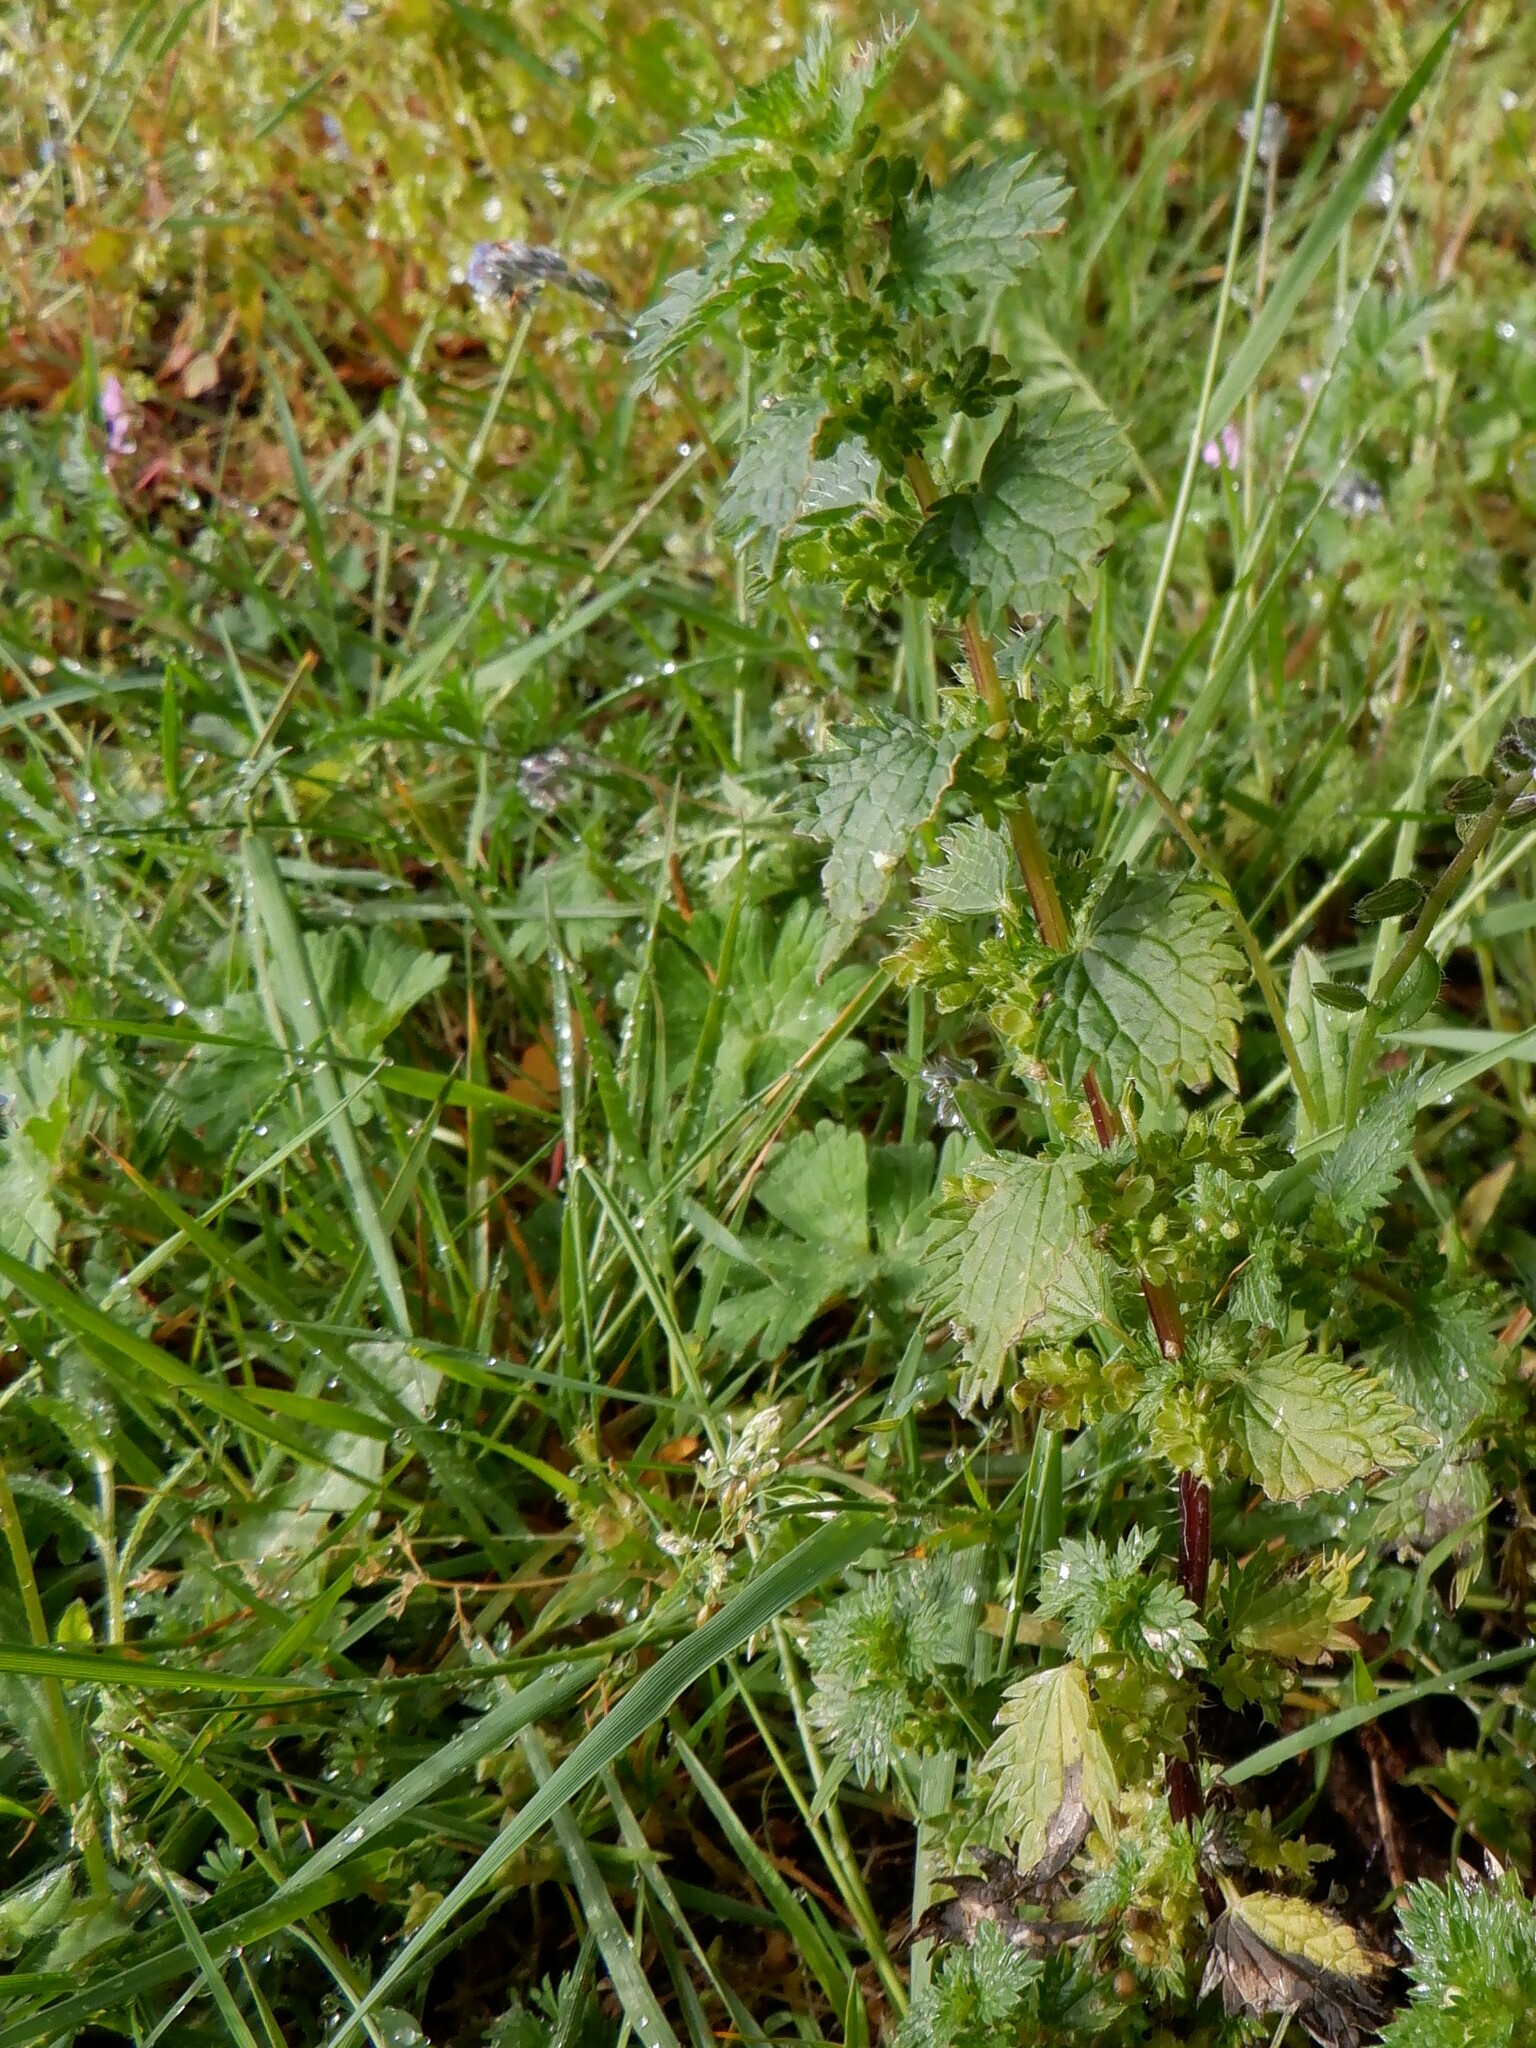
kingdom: Plantae
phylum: Tracheophyta
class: Magnoliopsida
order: Rosales
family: Urticaceae
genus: Urtica
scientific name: Urtica urens
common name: Dwarf nettle
